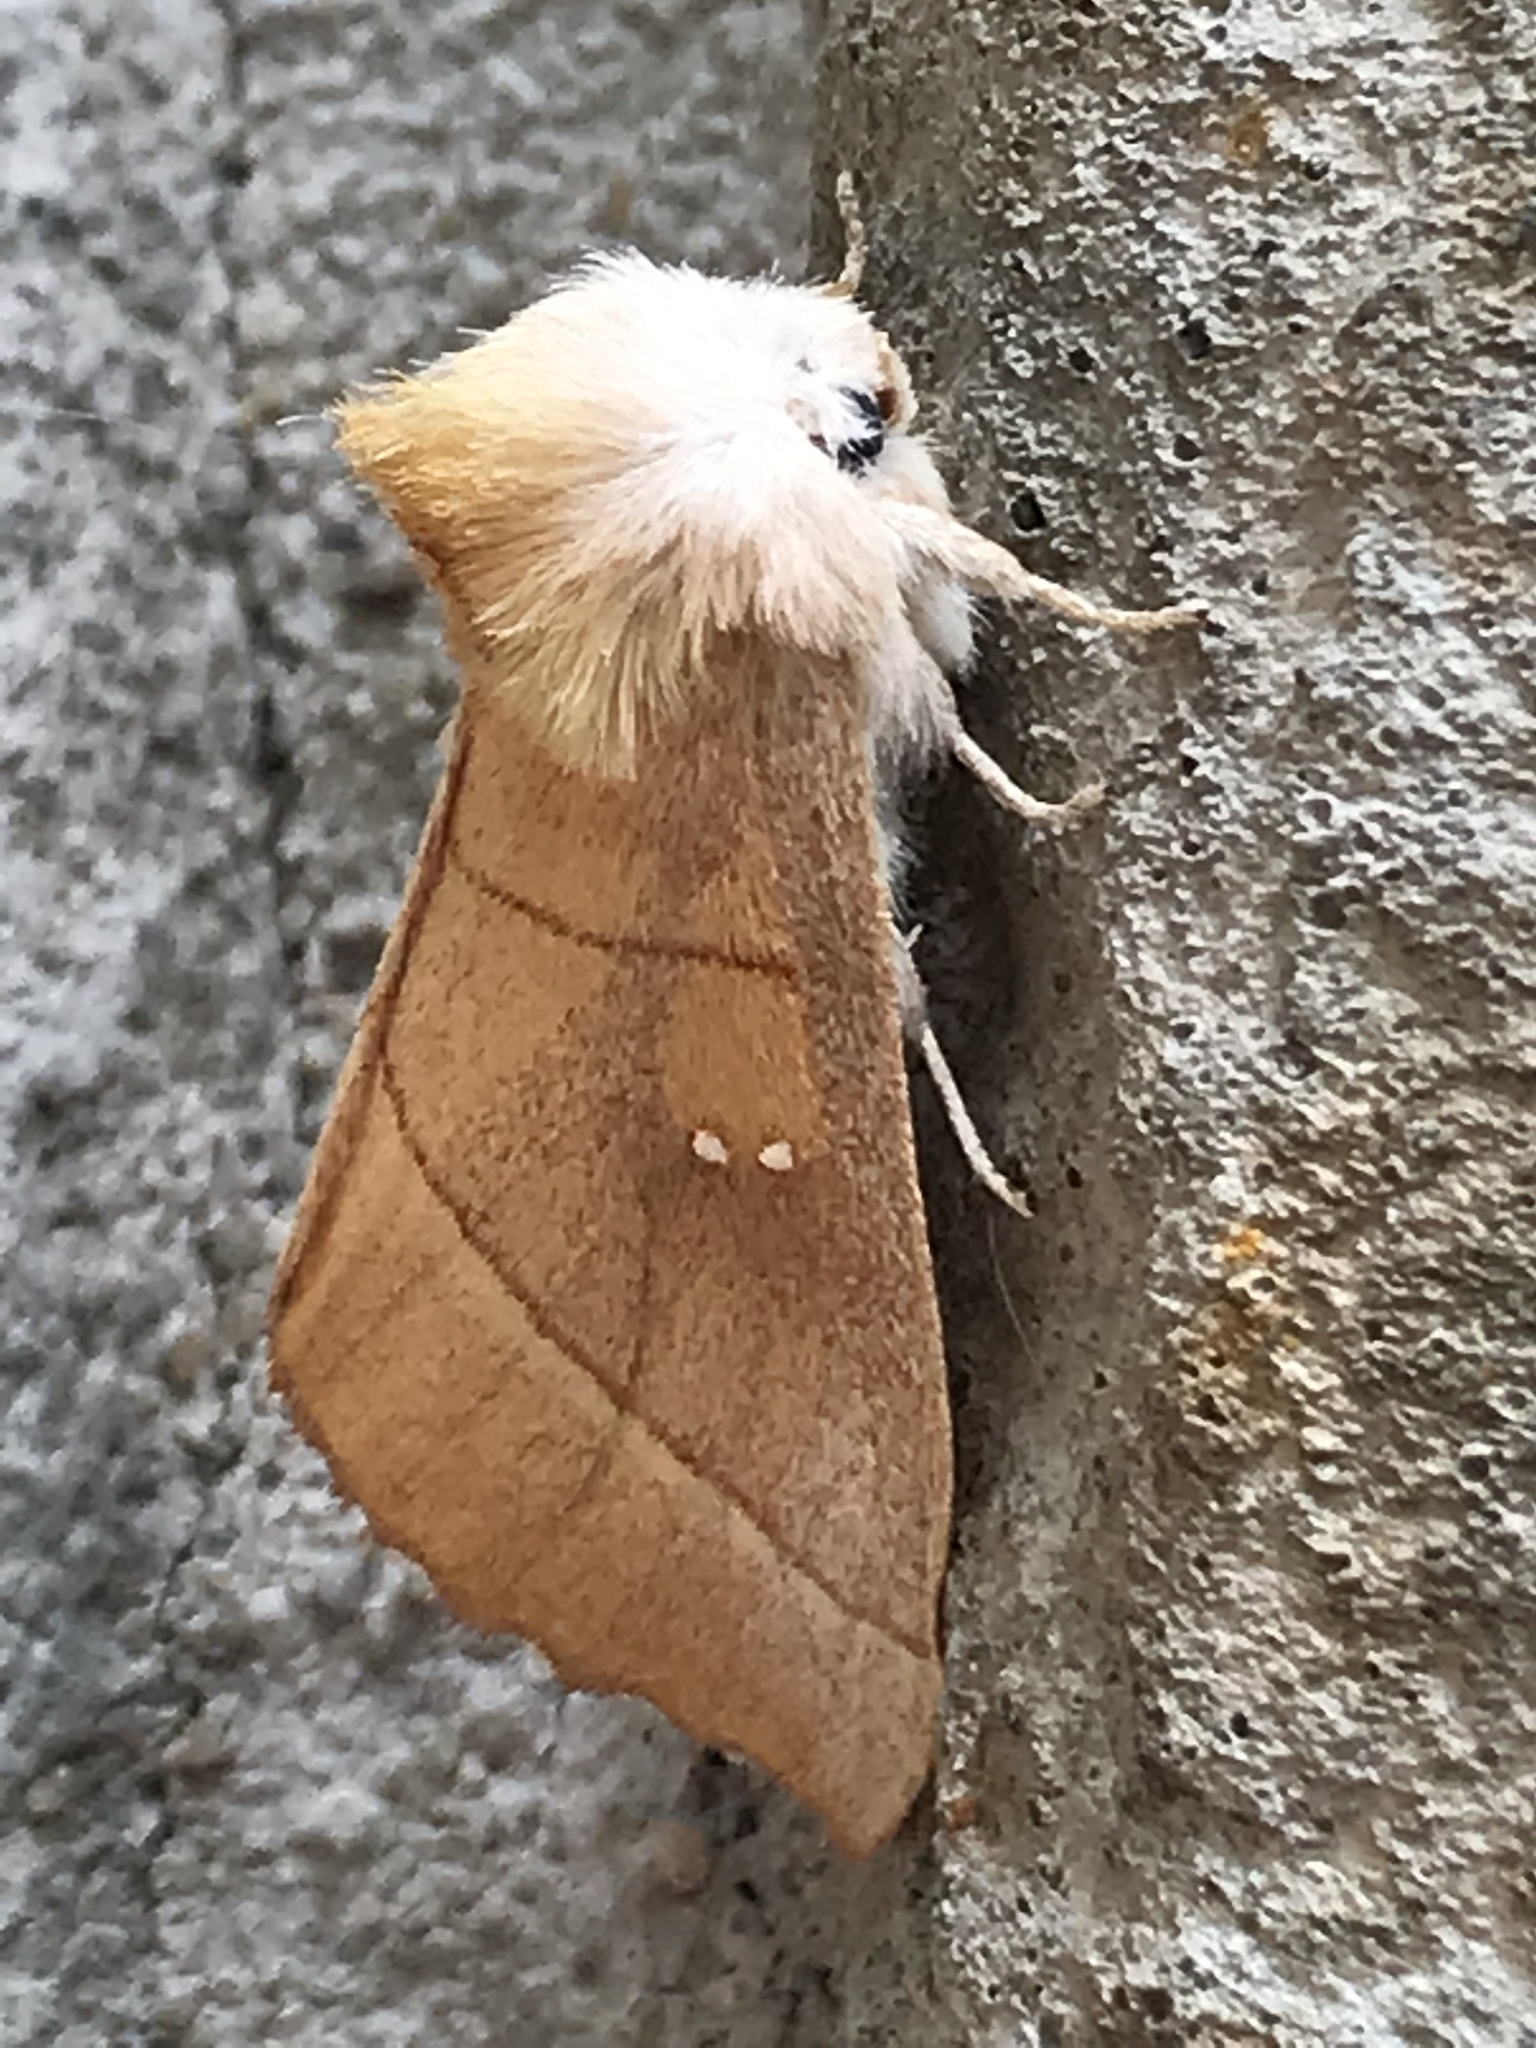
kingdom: Animalia
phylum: Arthropoda
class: Insecta
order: Lepidoptera
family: Notodontidae
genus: Nadata
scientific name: Nadata gibbosa
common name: White-dotted prominent
